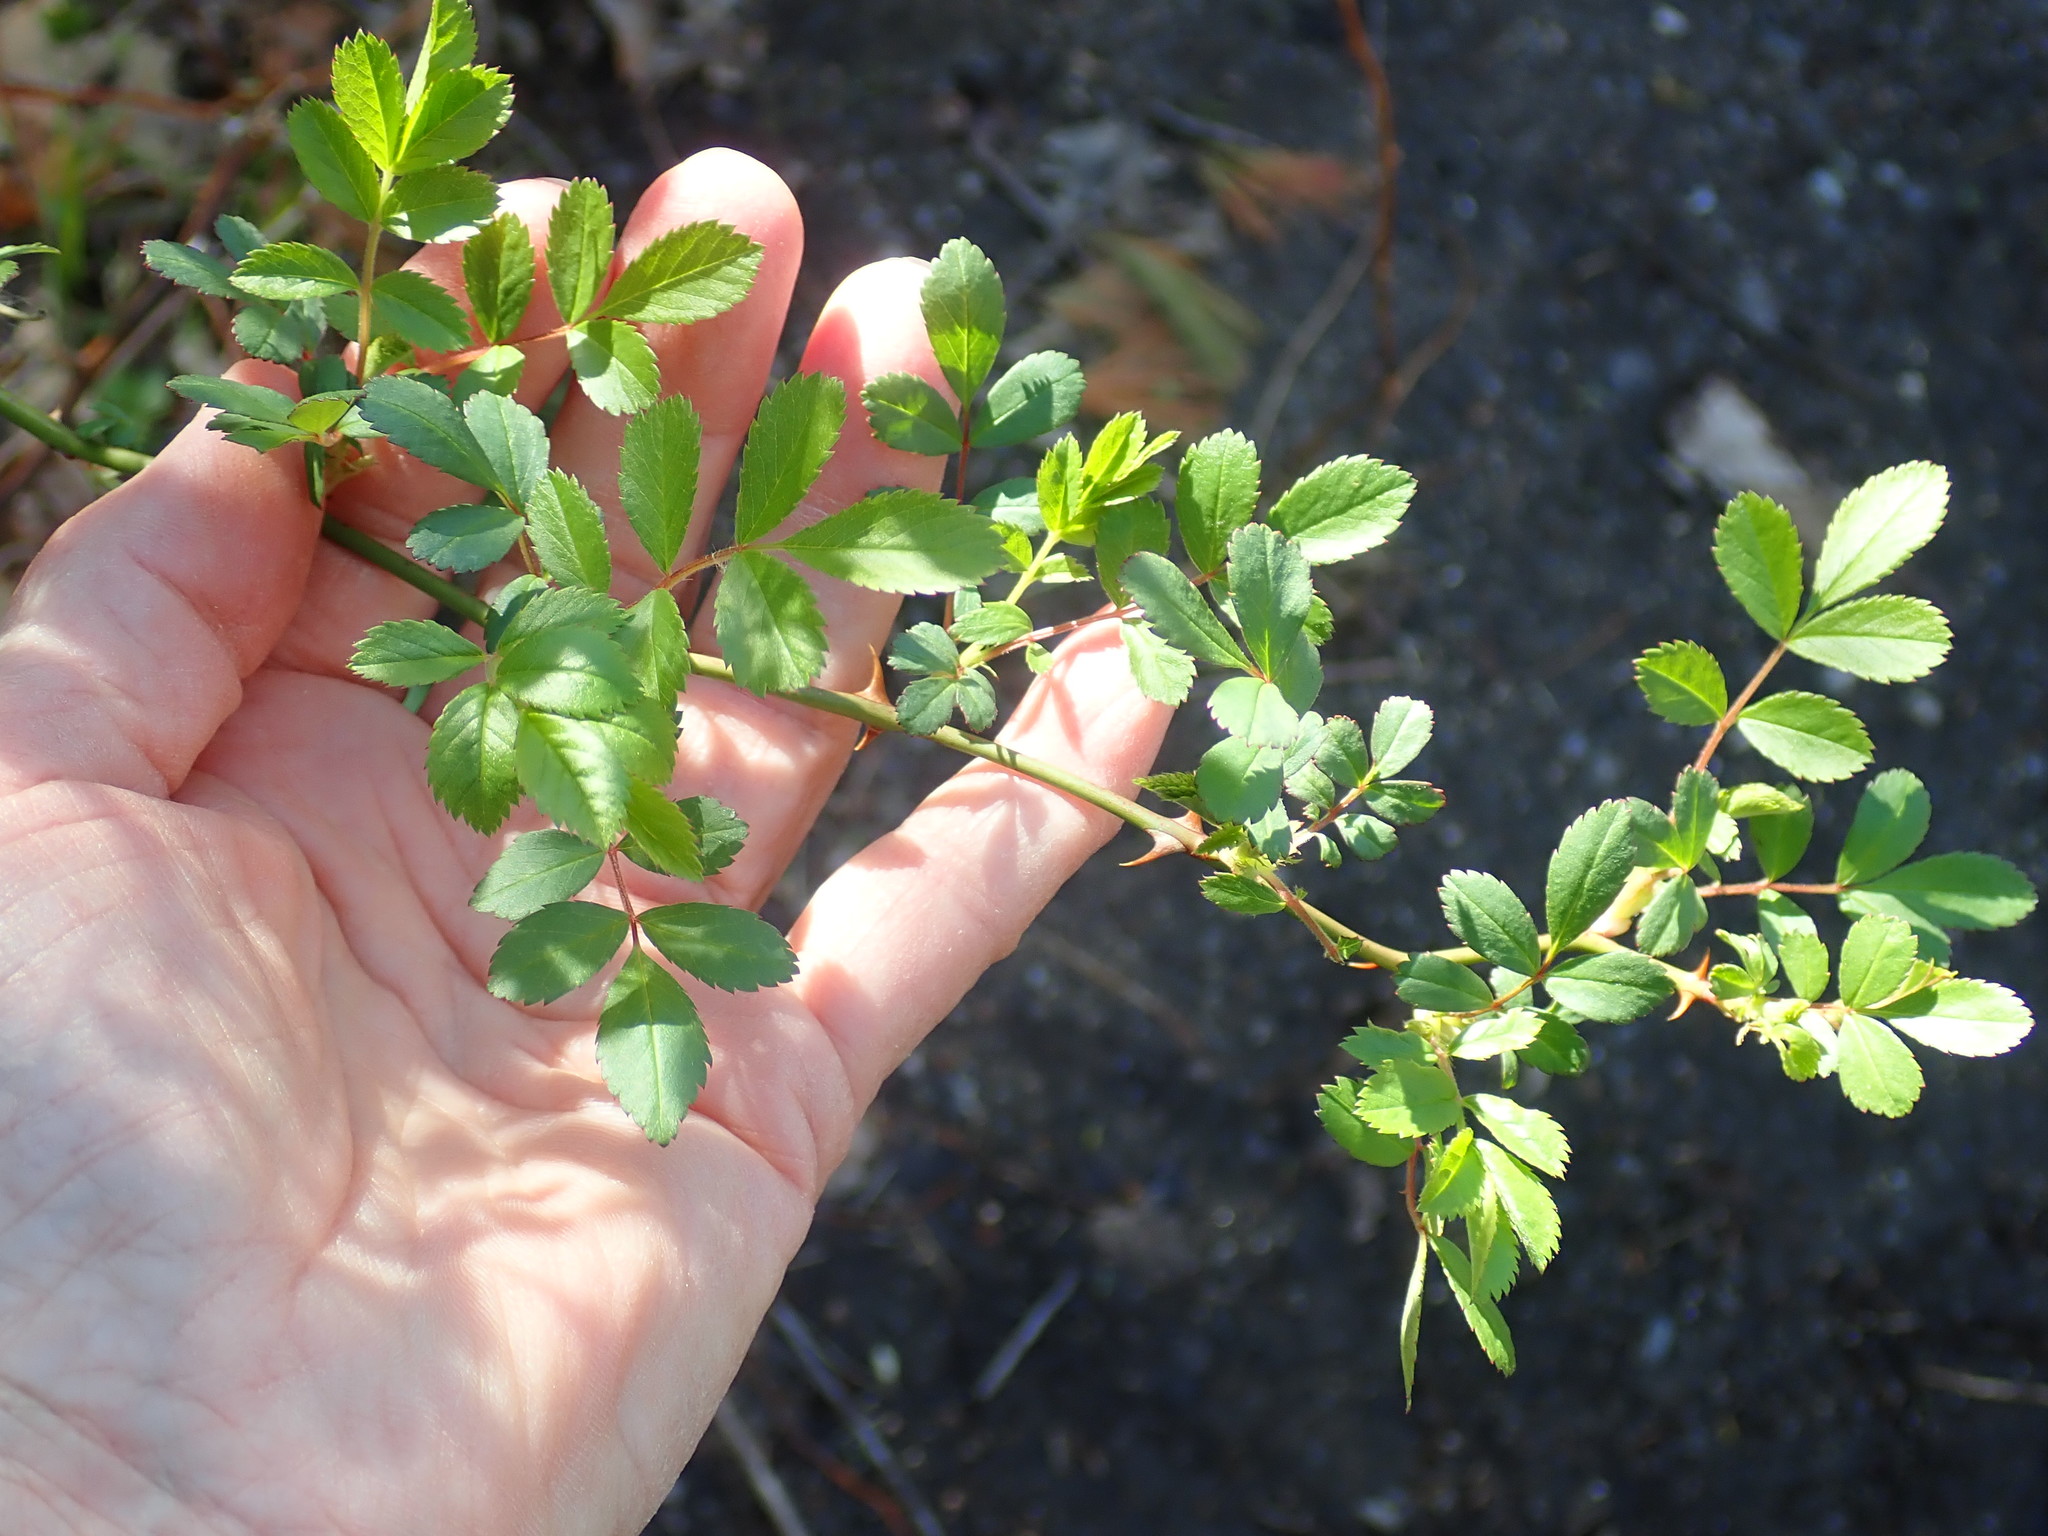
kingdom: Plantae
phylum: Tracheophyta
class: Magnoliopsida
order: Rosales
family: Rosaceae
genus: Rosa
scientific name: Rosa multiflora
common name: Multiflora rose
